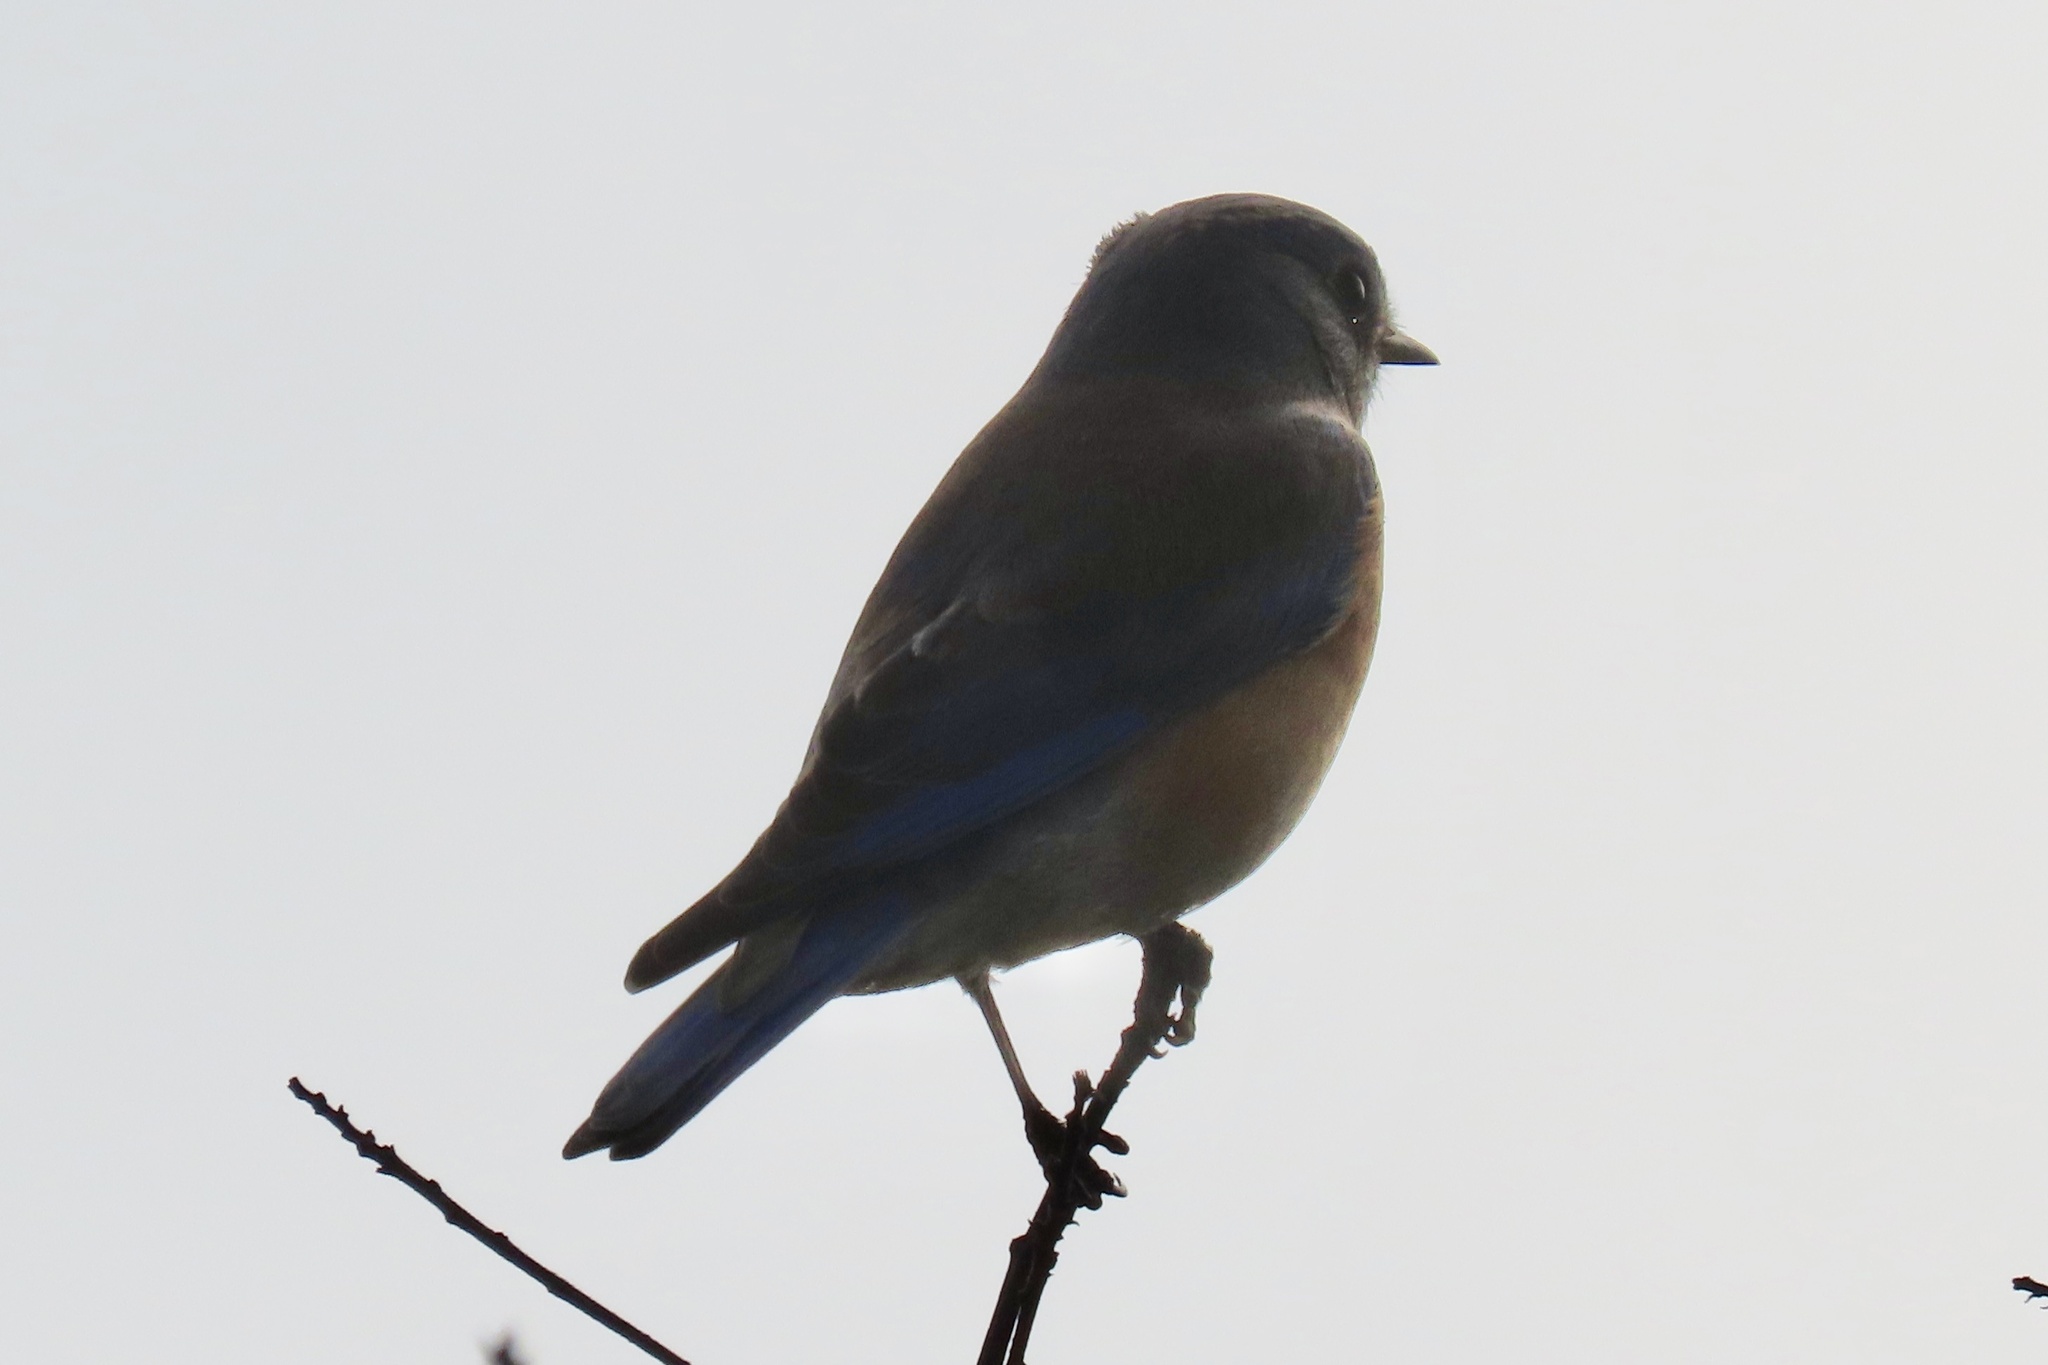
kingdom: Animalia
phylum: Chordata
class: Aves
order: Passeriformes
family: Turdidae
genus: Sialia
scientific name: Sialia mexicana
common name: Western bluebird
